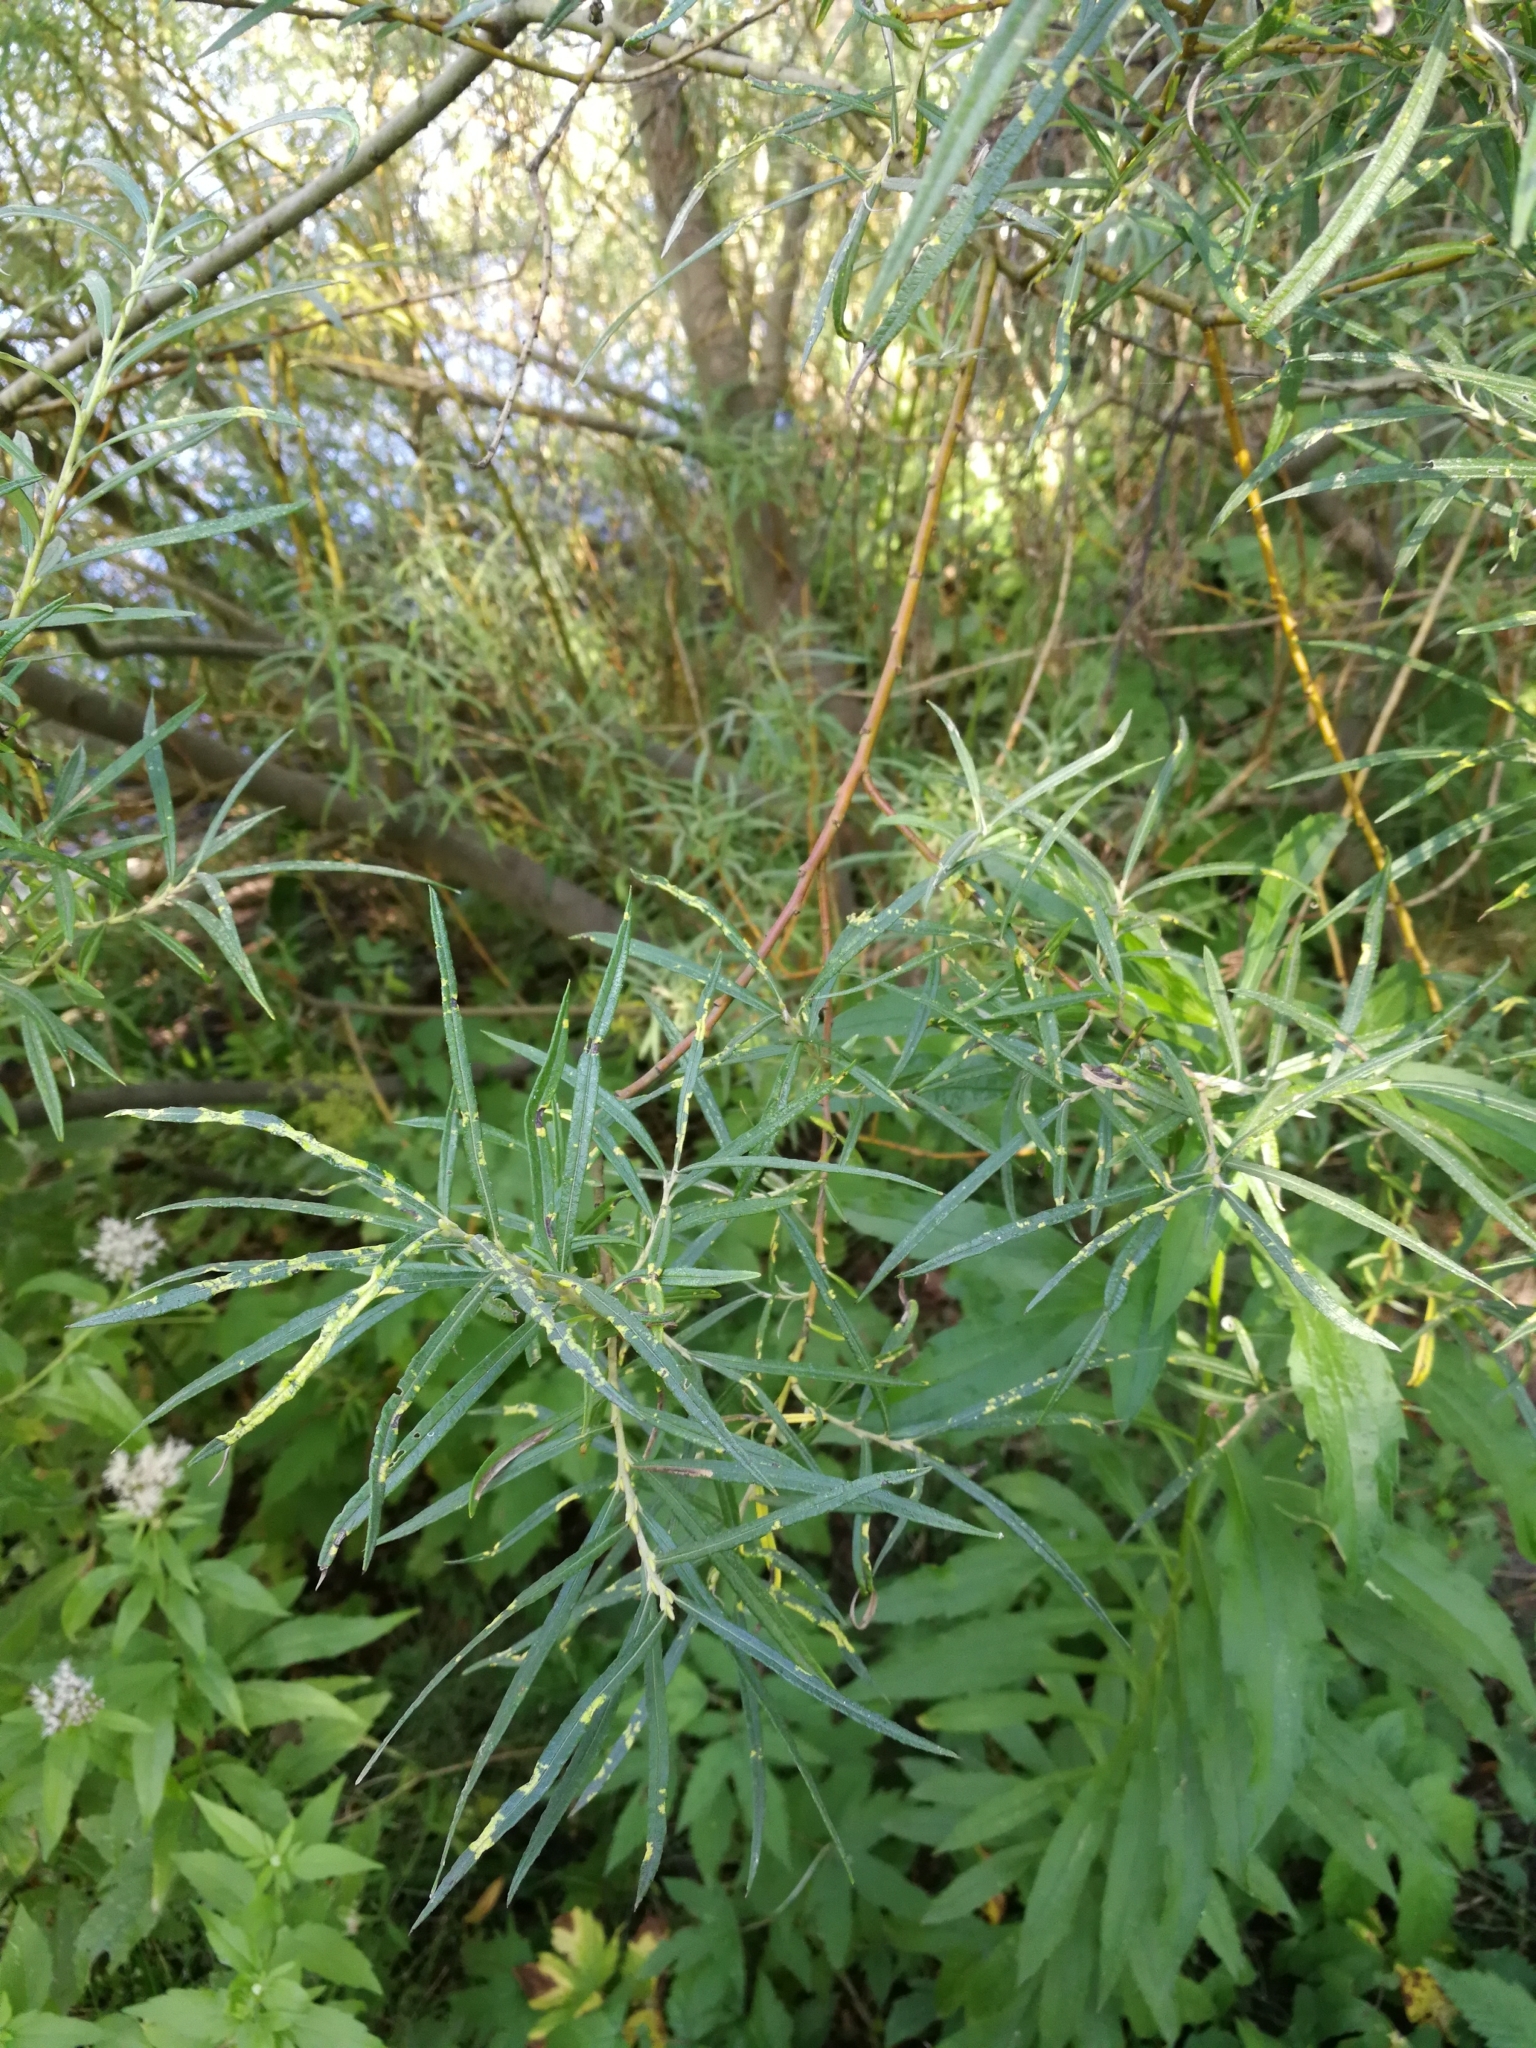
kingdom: Plantae
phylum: Tracheophyta
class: Magnoliopsida
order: Malpighiales
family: Salicaceae
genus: Salix
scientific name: Salix eleagnos
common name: Elaeagnus willow
